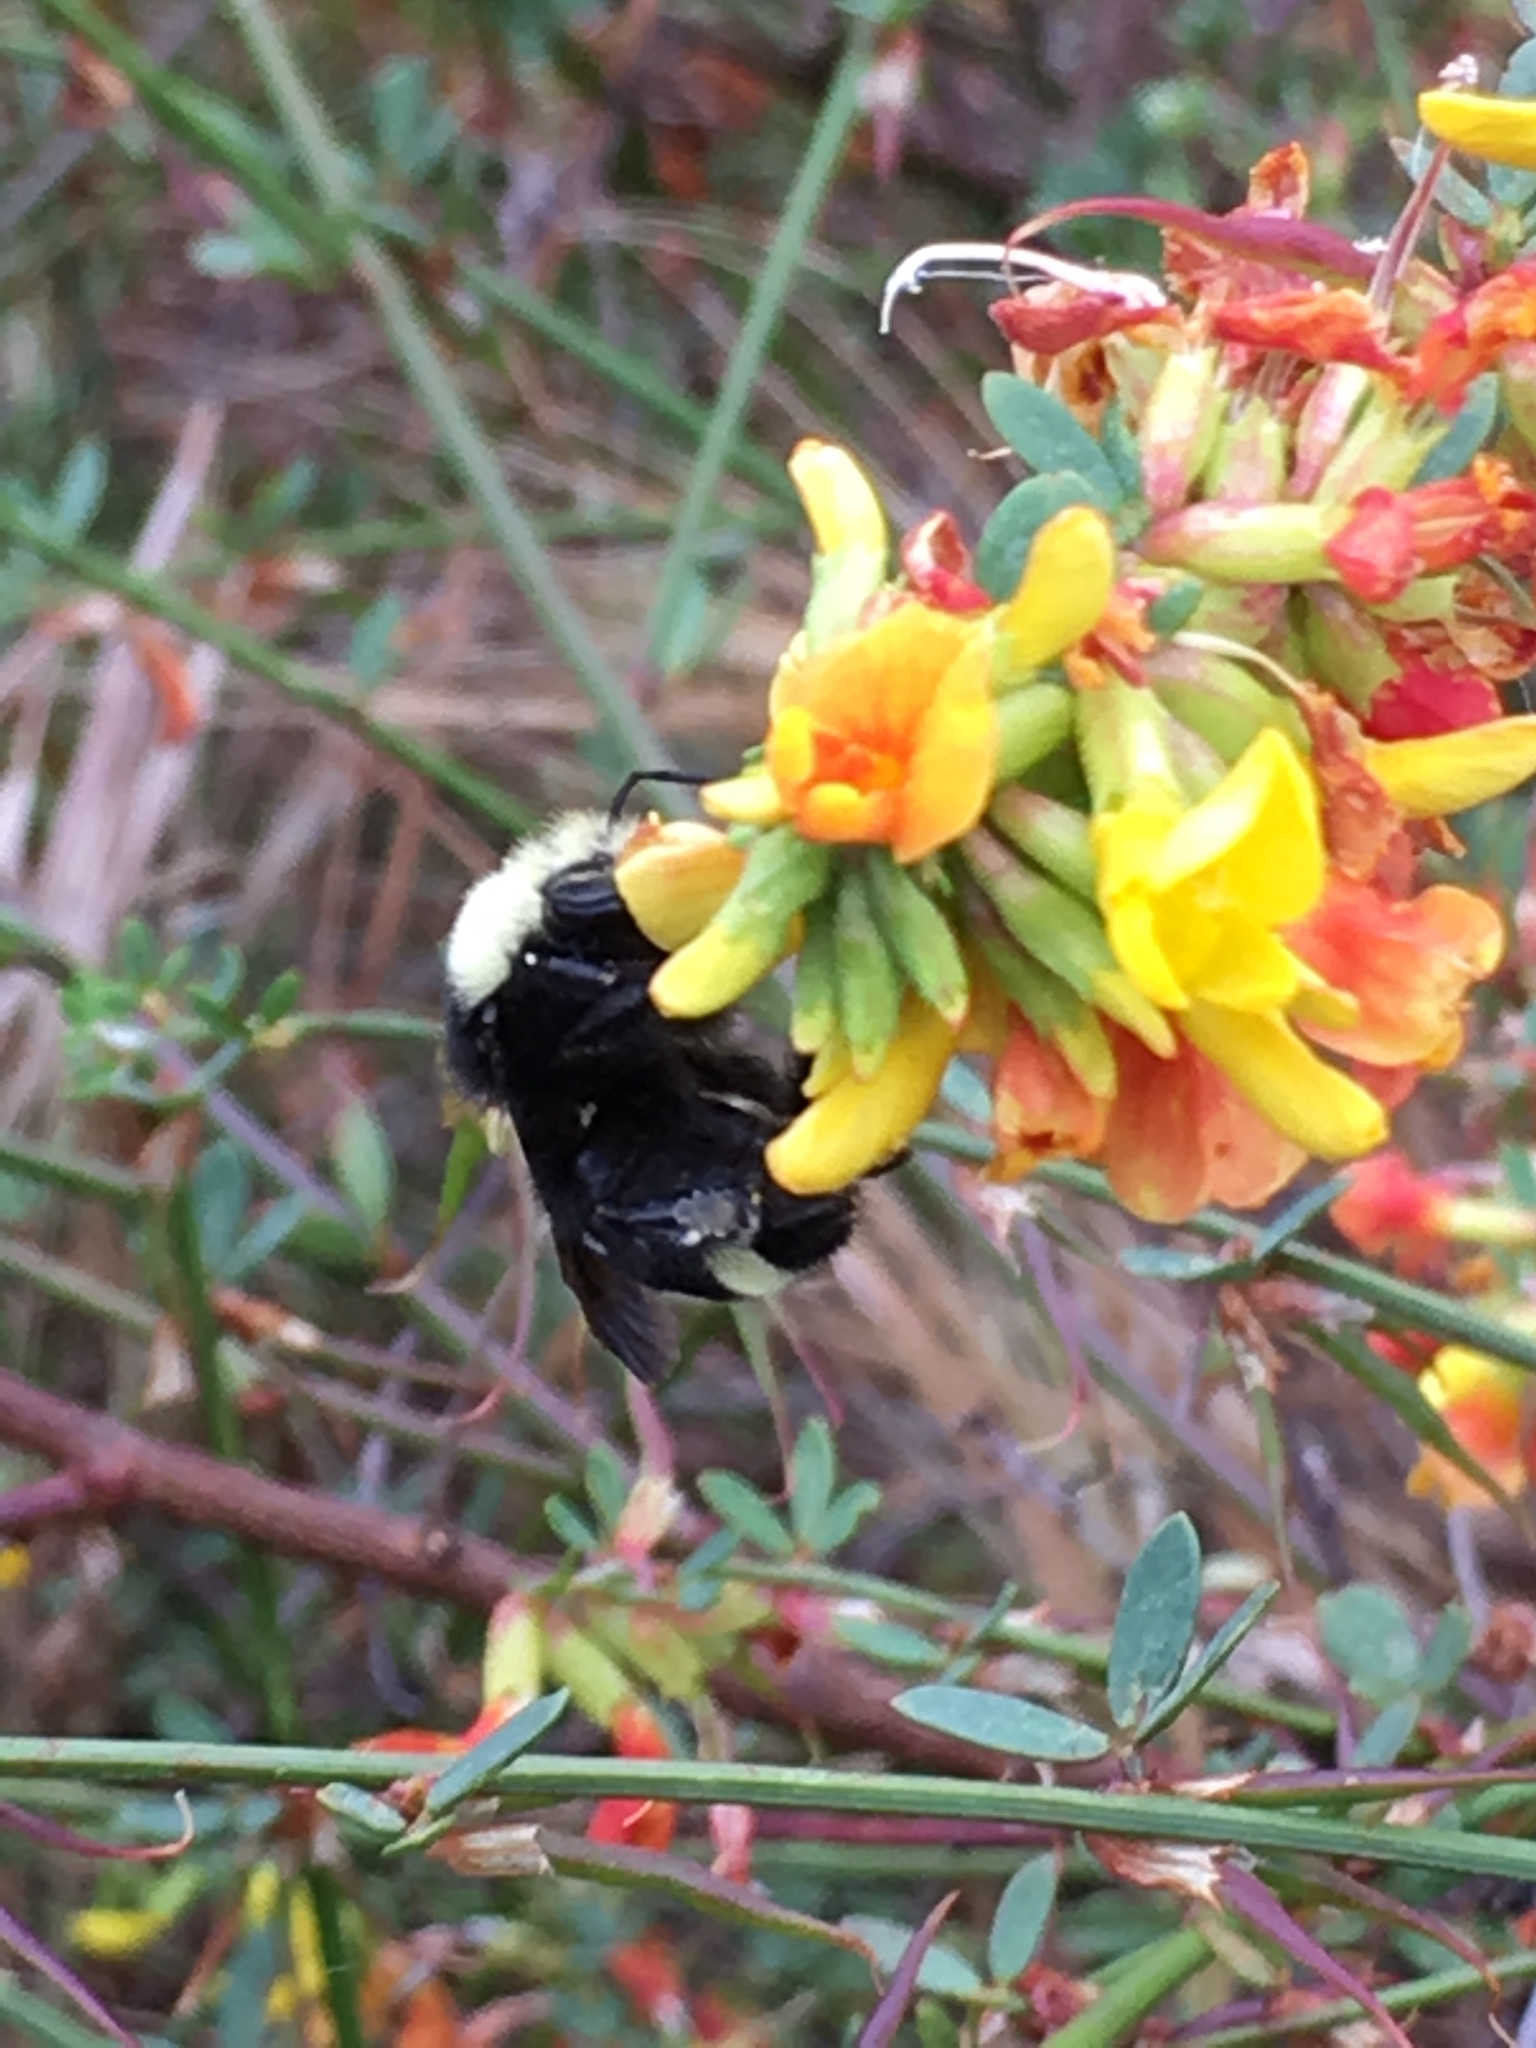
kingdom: Animalia
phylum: Arthropoda
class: Insecta
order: Hymenoptera
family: Apidae
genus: Bombus
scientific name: Bombus vosnesenskii
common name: Vosnesensky bumble bee
